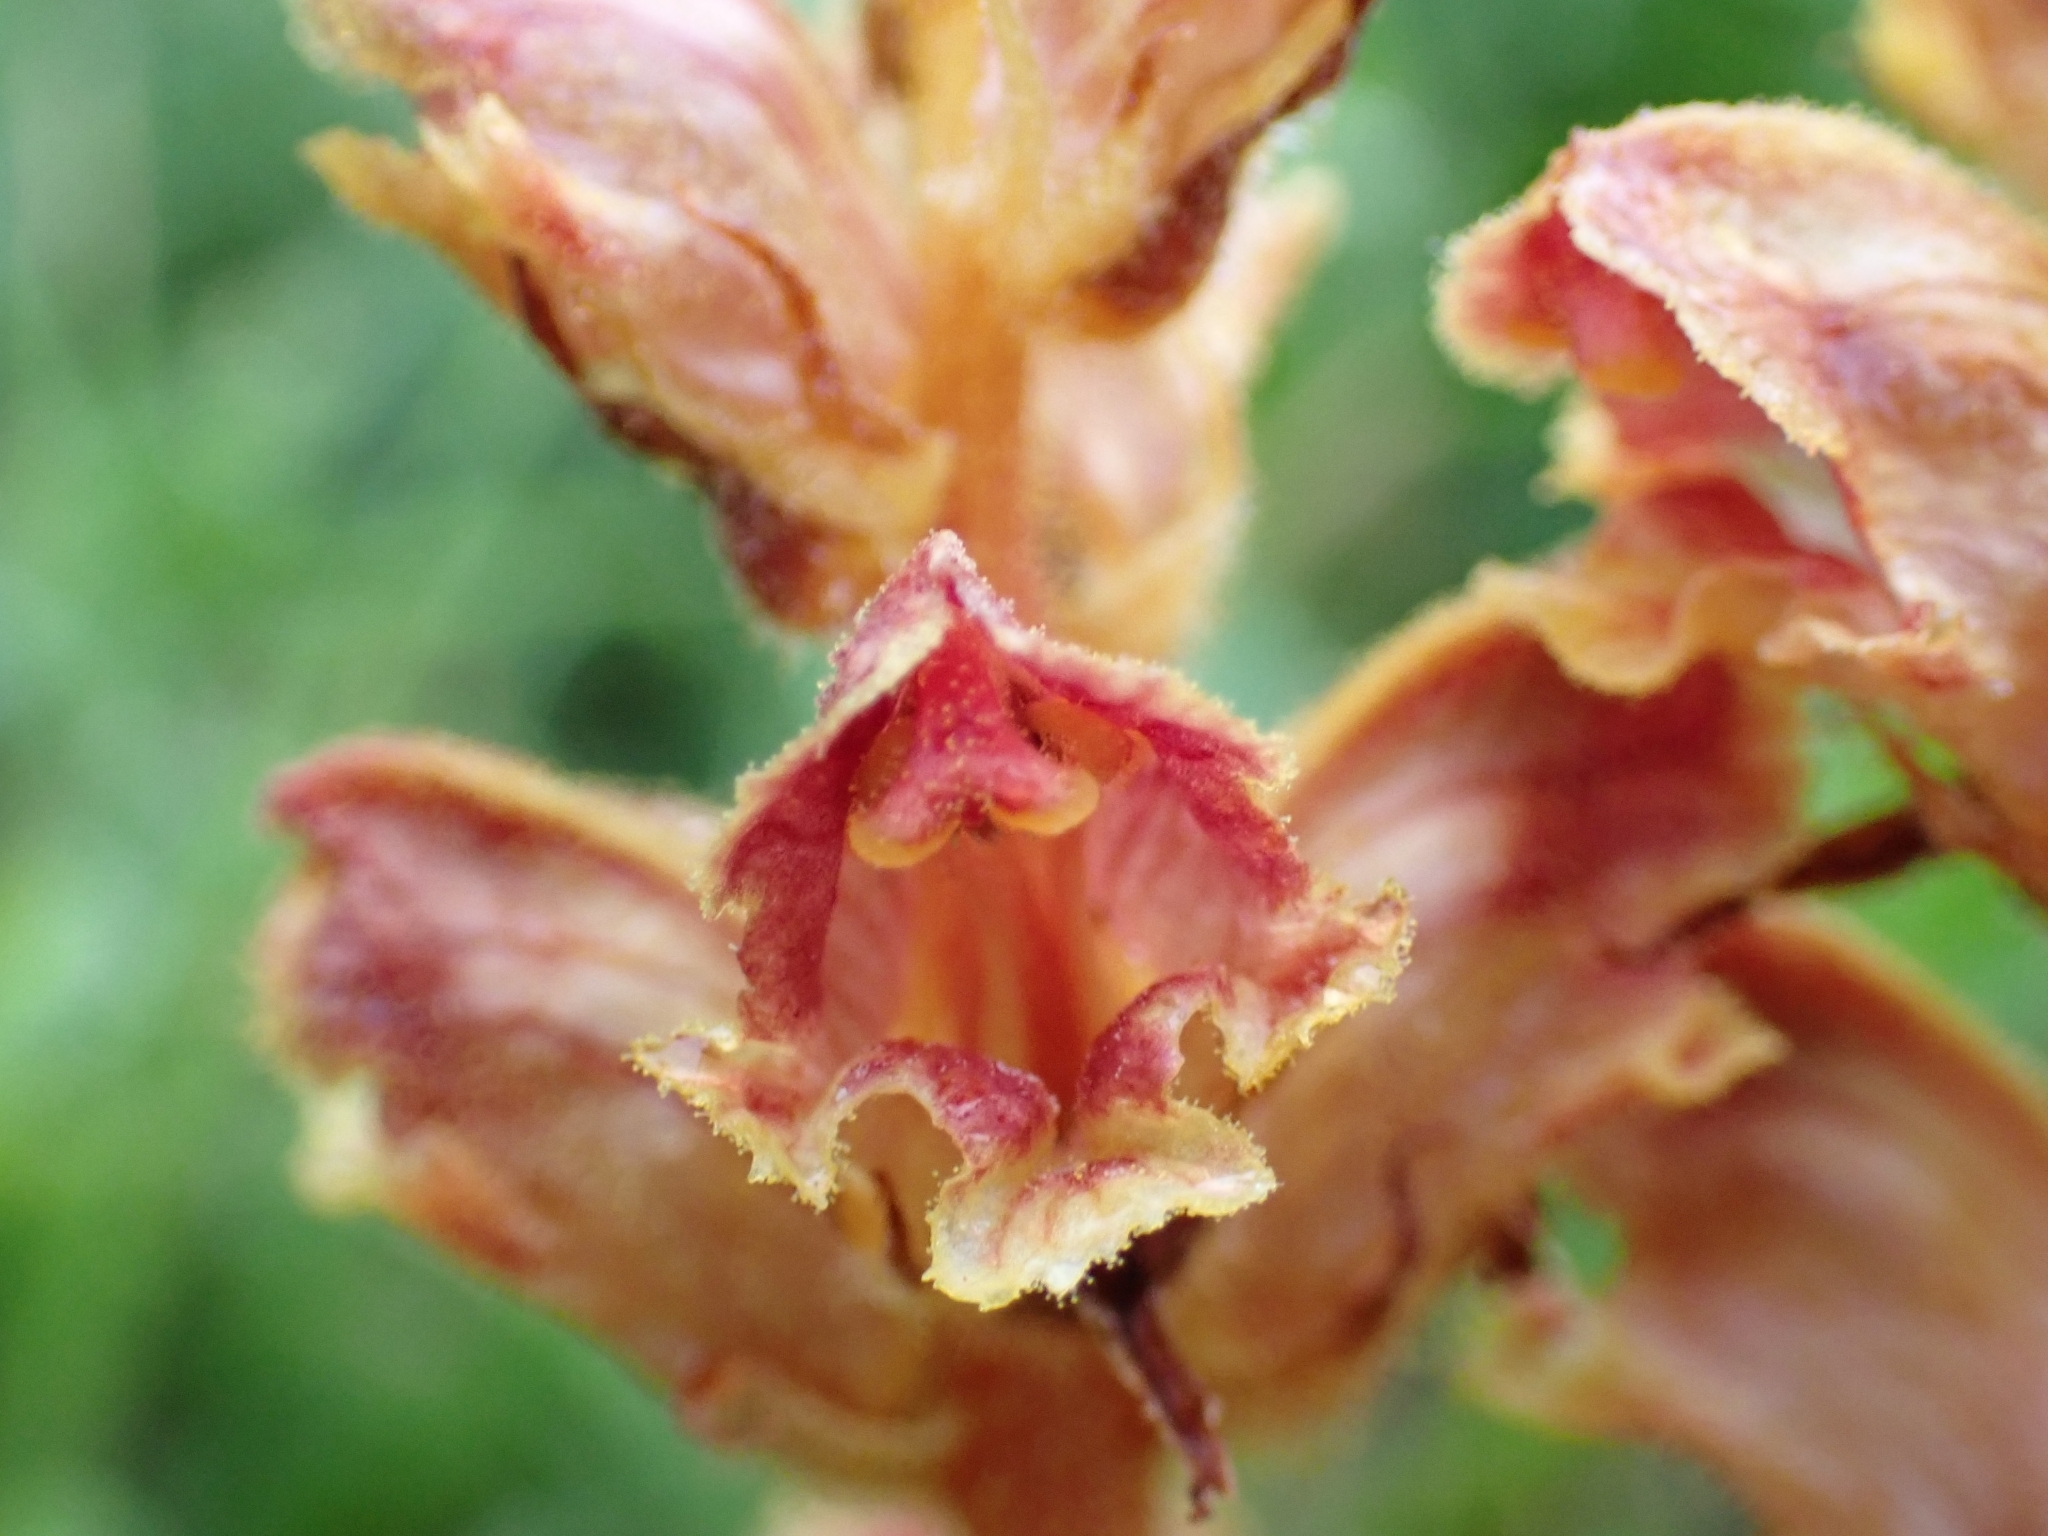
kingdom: Plantae
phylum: Tracheophyta
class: Magnoliopsida
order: Lamiales
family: Orobanchaceae
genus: Orobanche
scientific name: Orobanche gracilis
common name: Slender broomrape
